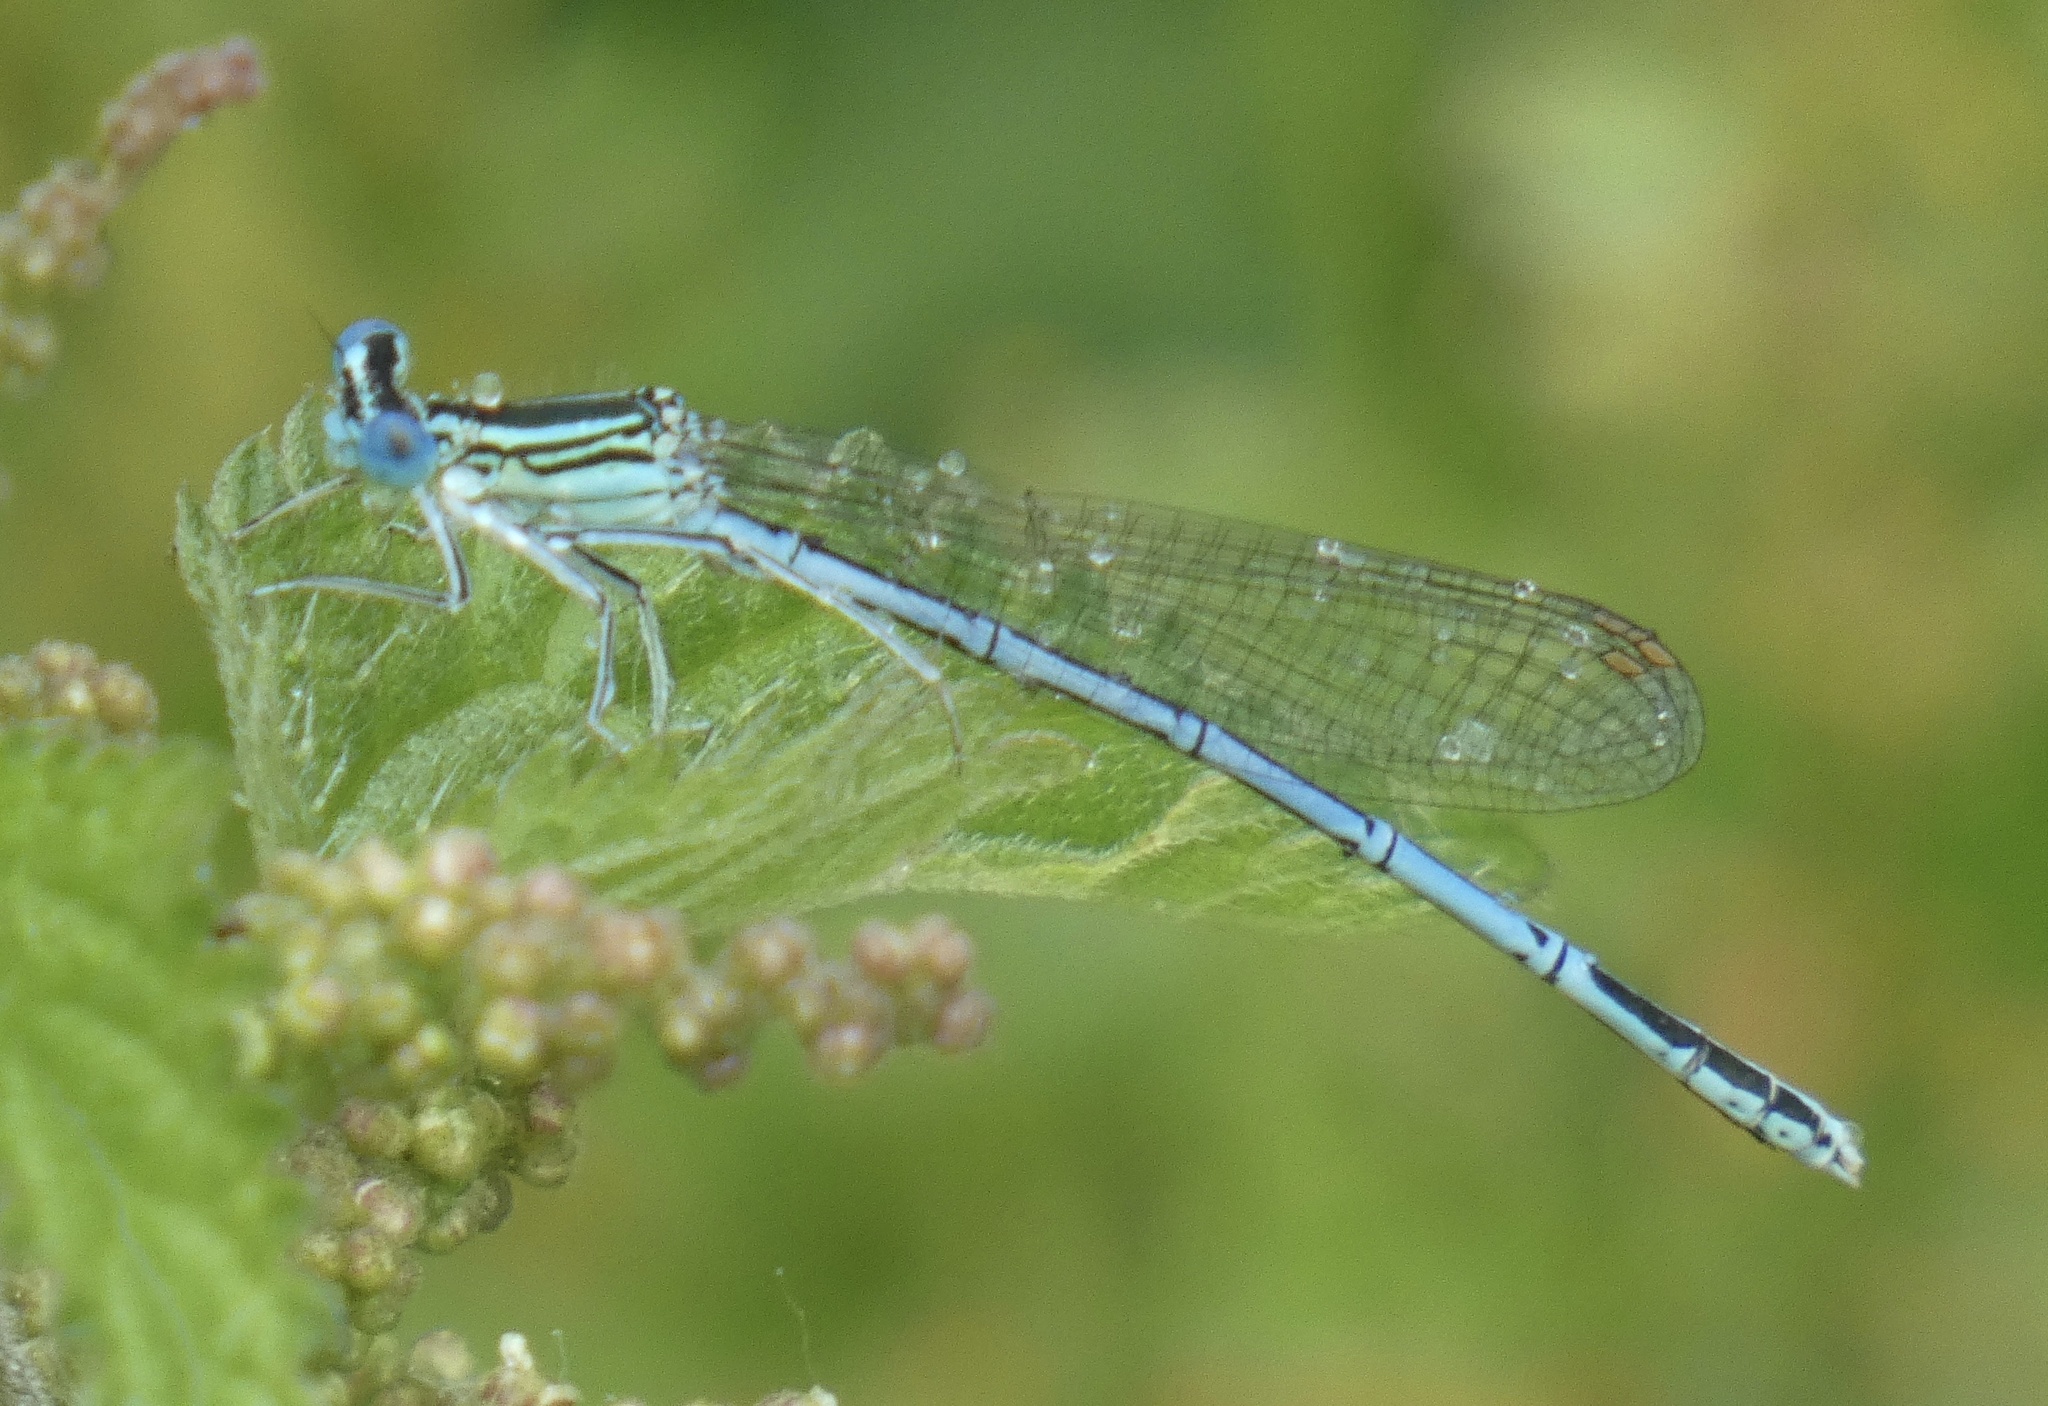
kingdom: Animalia
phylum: Arthropoda
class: Insecta
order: Odonata
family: Platycnemididae
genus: Platycnemis
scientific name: Platycnemis pennipes
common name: White-legged damselfly
